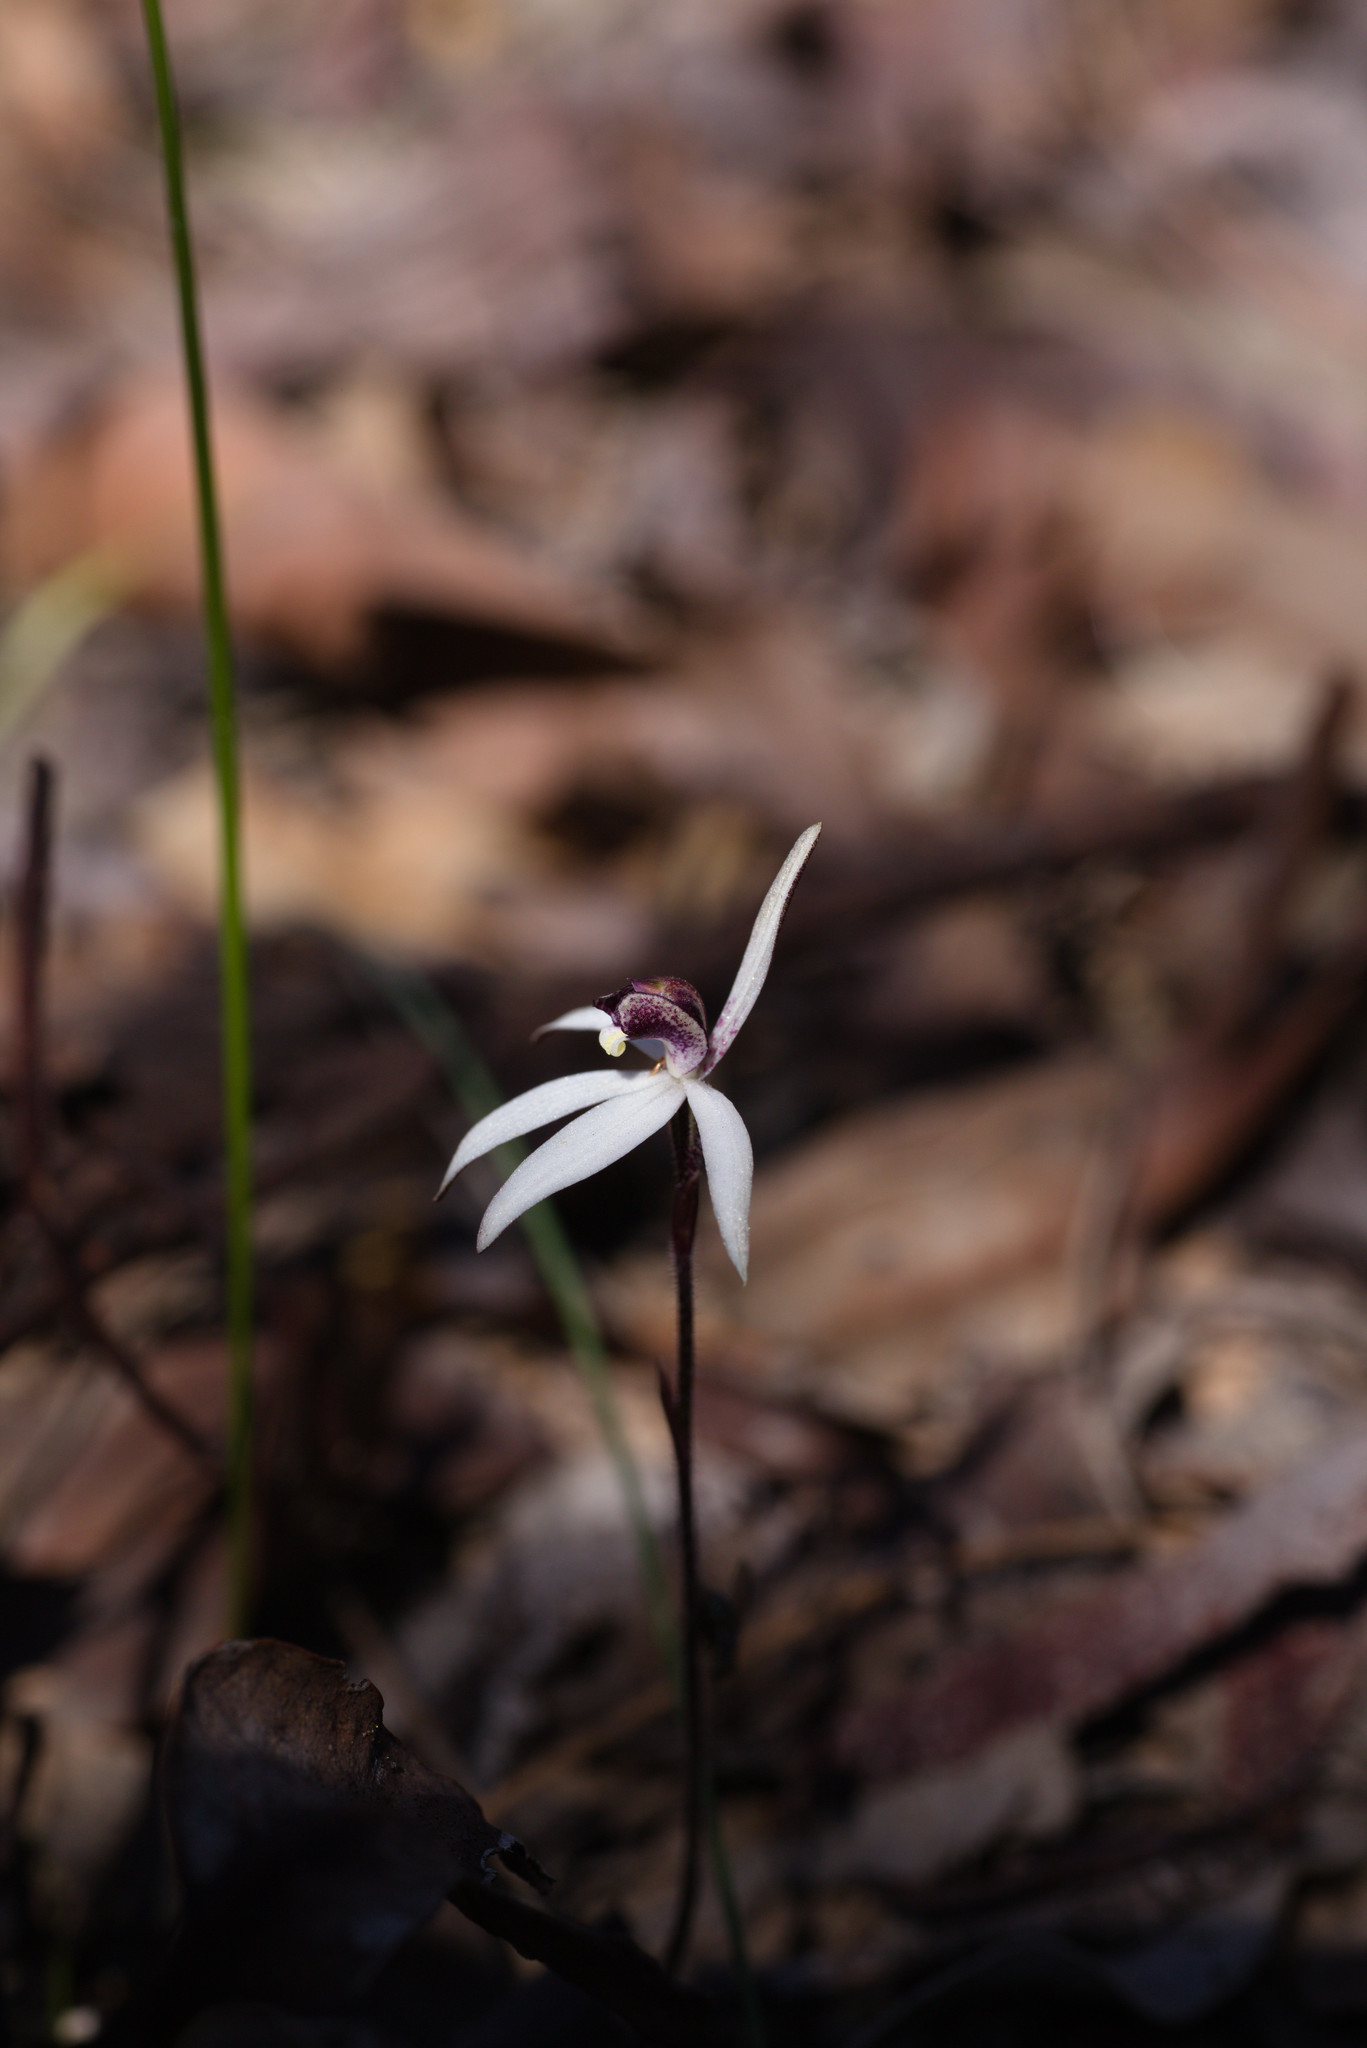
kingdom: Plantae
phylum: Tracheophyta
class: Liliopsida
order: Asparagales
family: Orchidaceae
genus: Caladenia
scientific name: Caladenia saccharata
